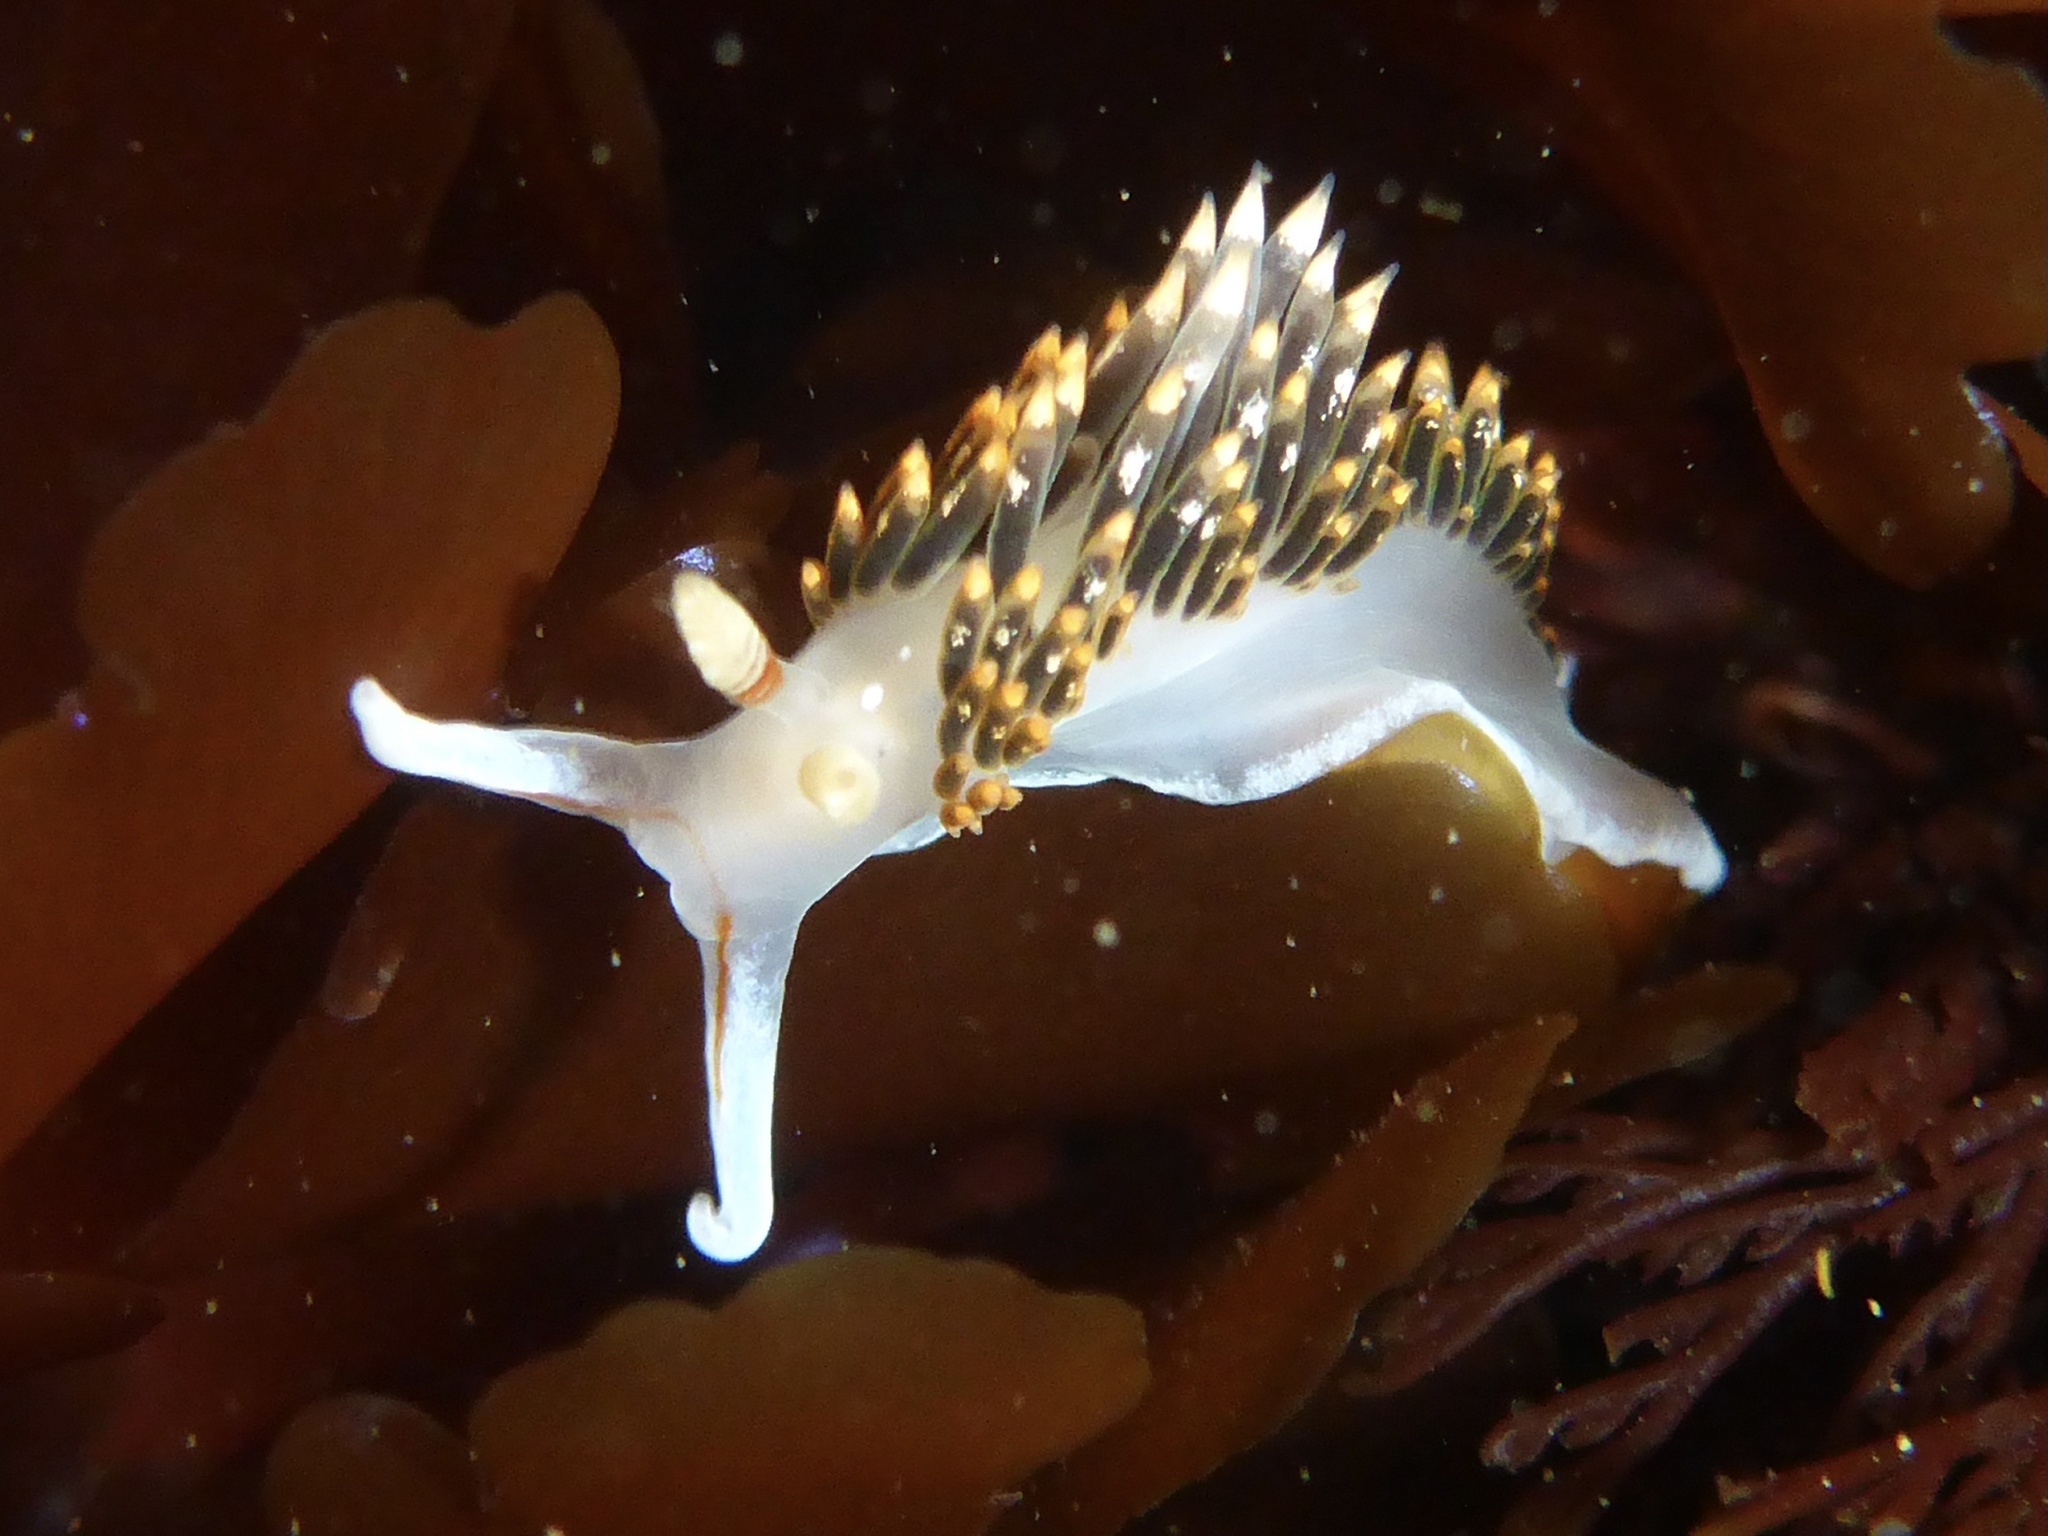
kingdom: Animalia
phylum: Mollusca
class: Gastropoda
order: Nudibranchia
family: Facelinidae
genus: Phidiana
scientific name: Phidiana hiltoni
